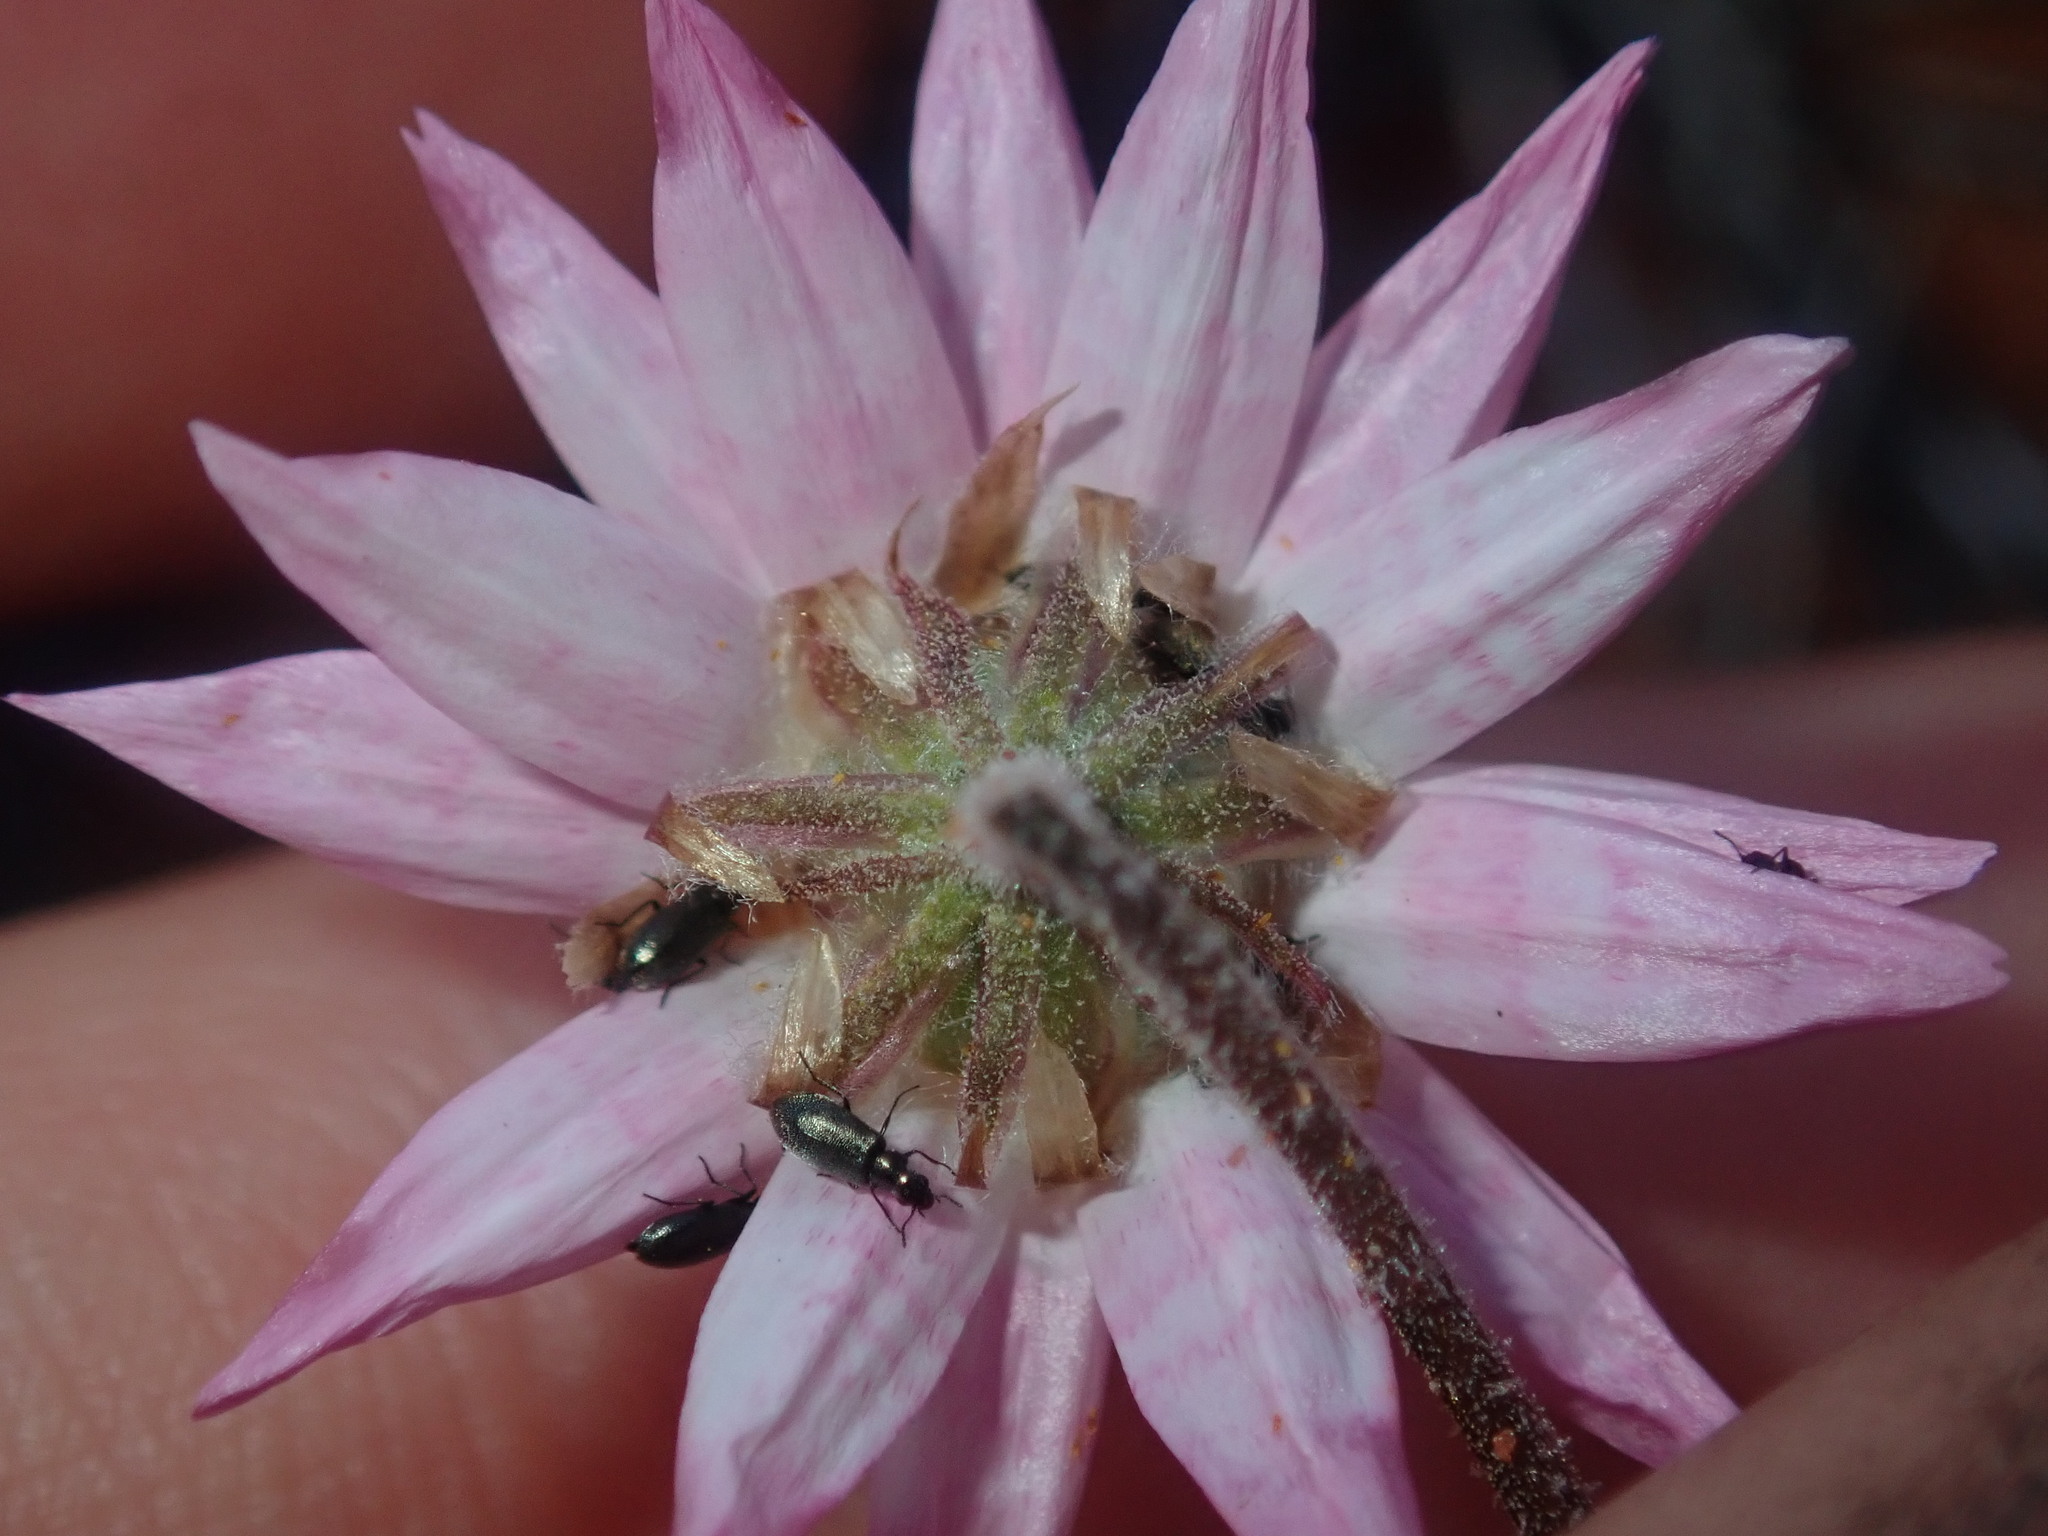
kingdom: Plantae
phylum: Tracheophyta
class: Magnoliopsida
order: Asterales
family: Asteraceae
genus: Lawrencella
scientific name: Lawrencella davenportii
